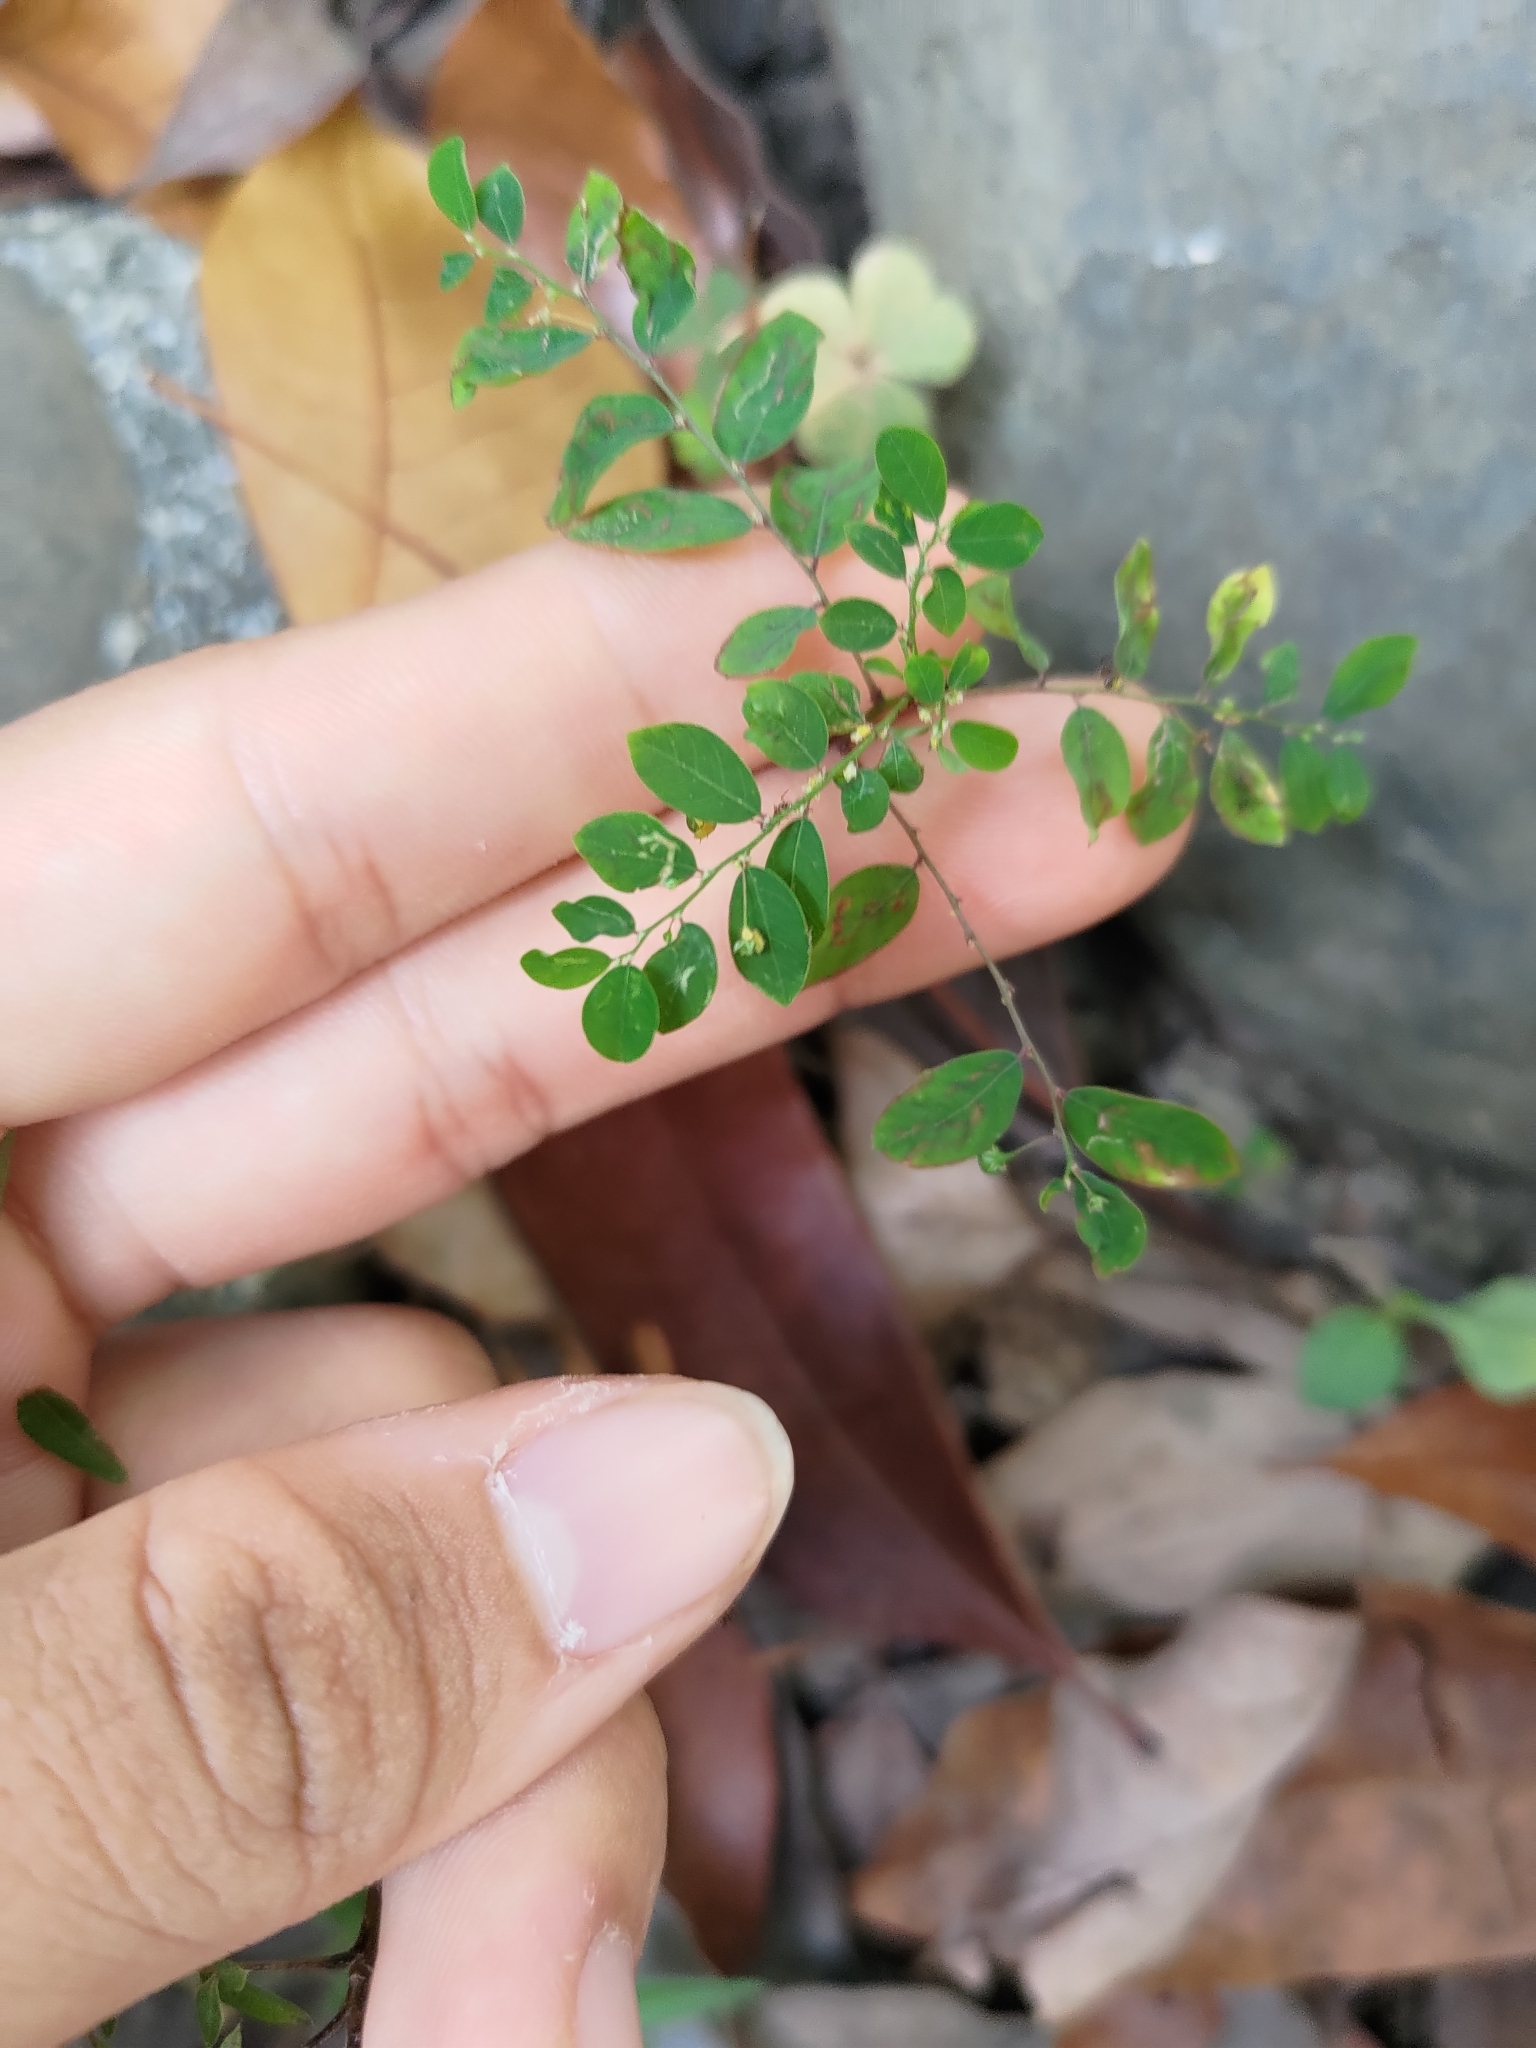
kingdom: Plantae
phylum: Tracheophyta
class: Magnoliopsida
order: Malpighiales
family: Phyllanthaceae
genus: Phyllanthus
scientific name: Phyllanthus tenellus
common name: Mascarene island leaf-flower
